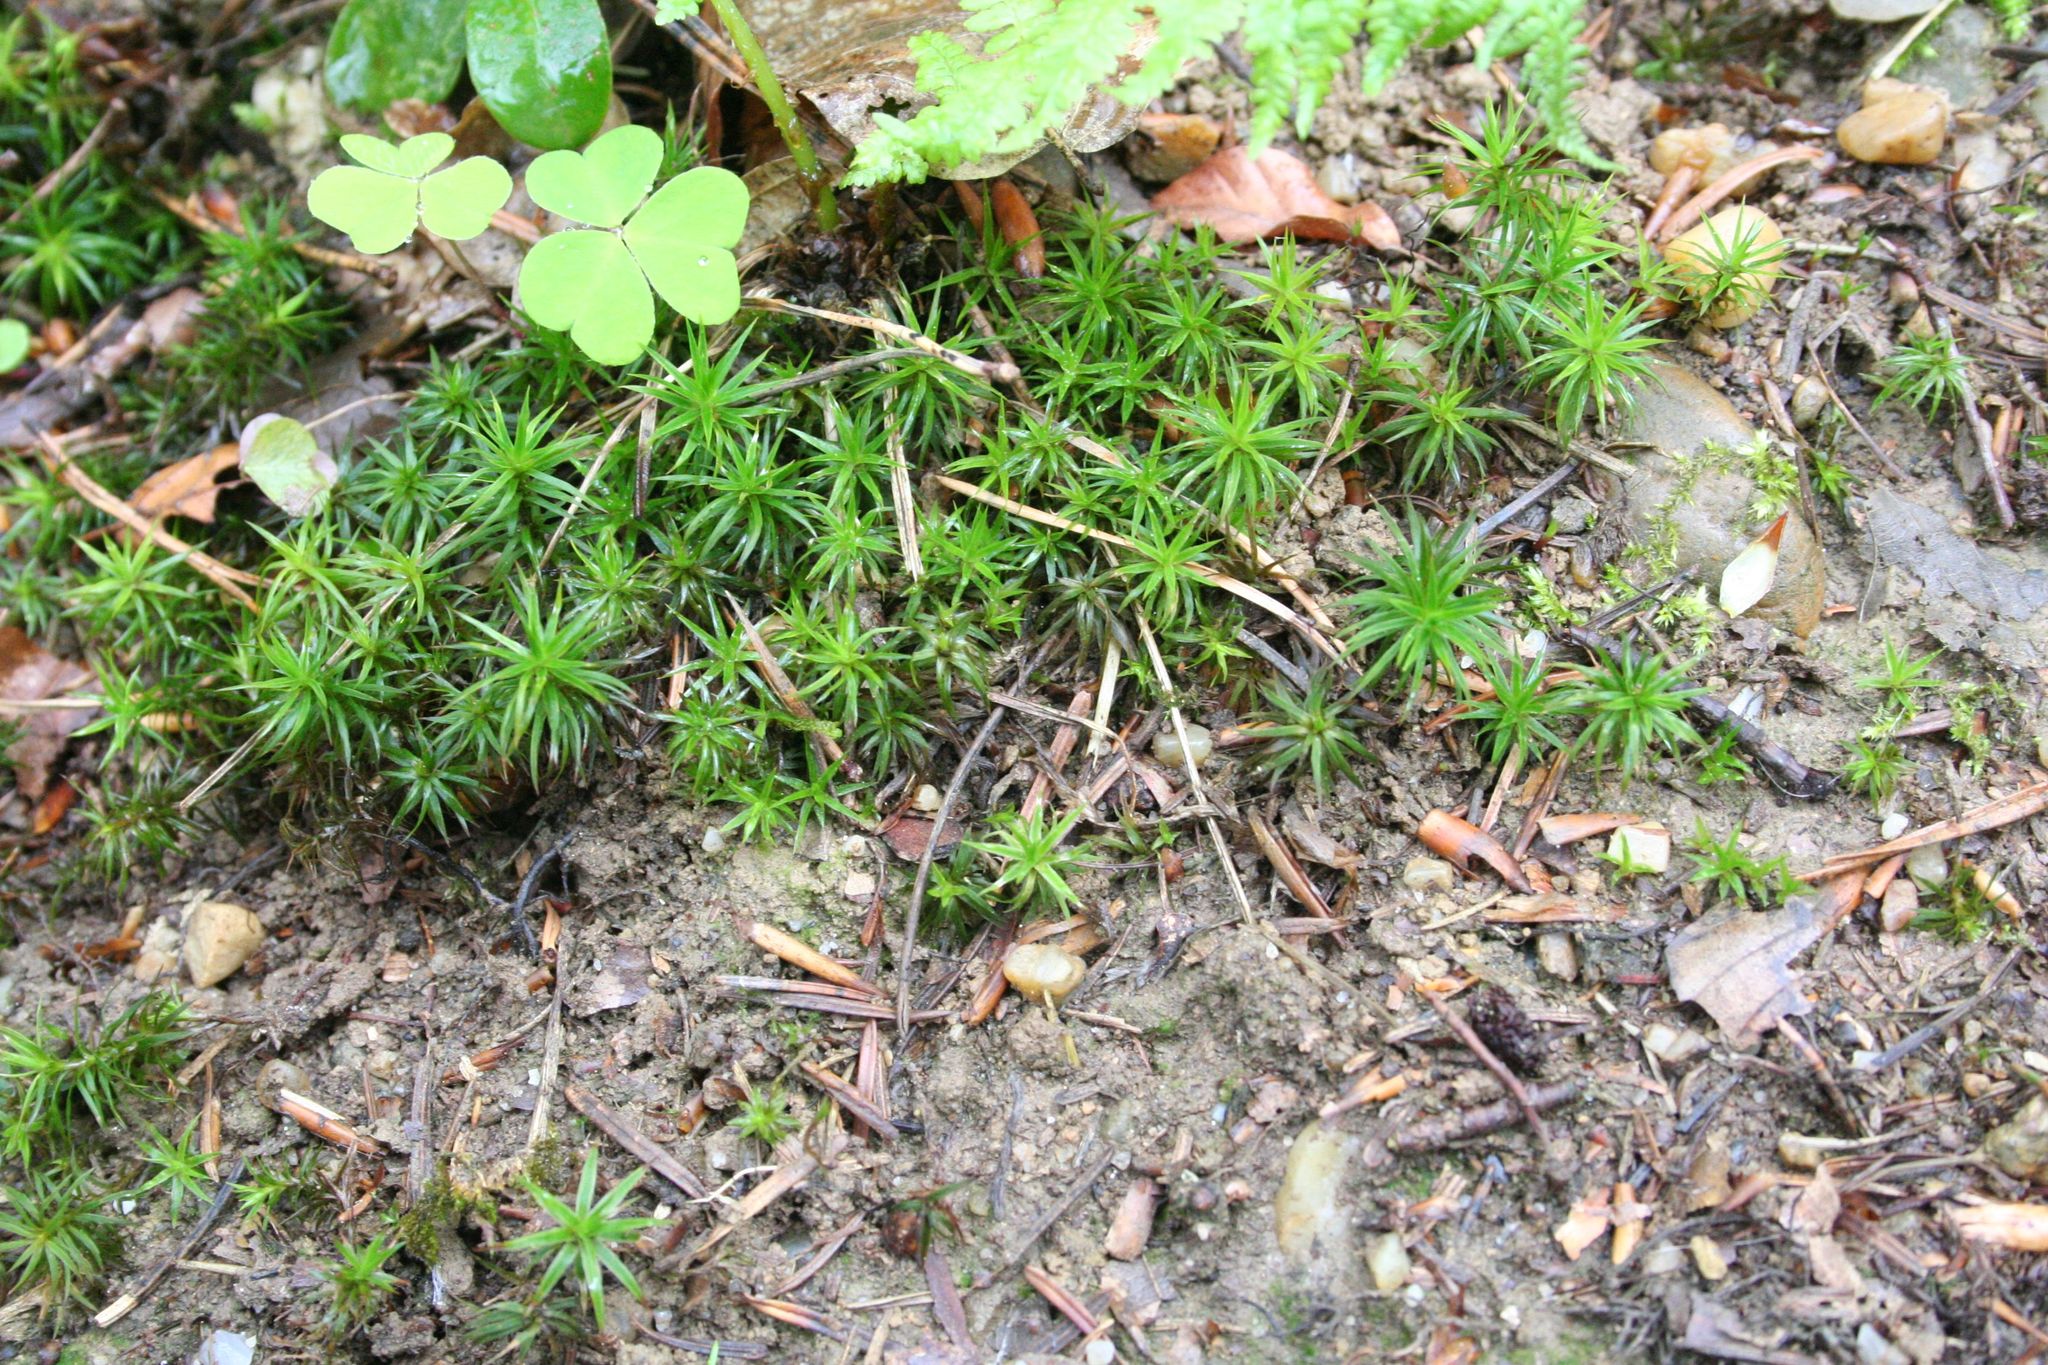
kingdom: Plantae
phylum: Bryophyta
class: Polytrichopsida
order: Polytrichales
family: Polytrichaceae
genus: Polytrichum
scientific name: Polytrichum formosum
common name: Bank haircap moss
